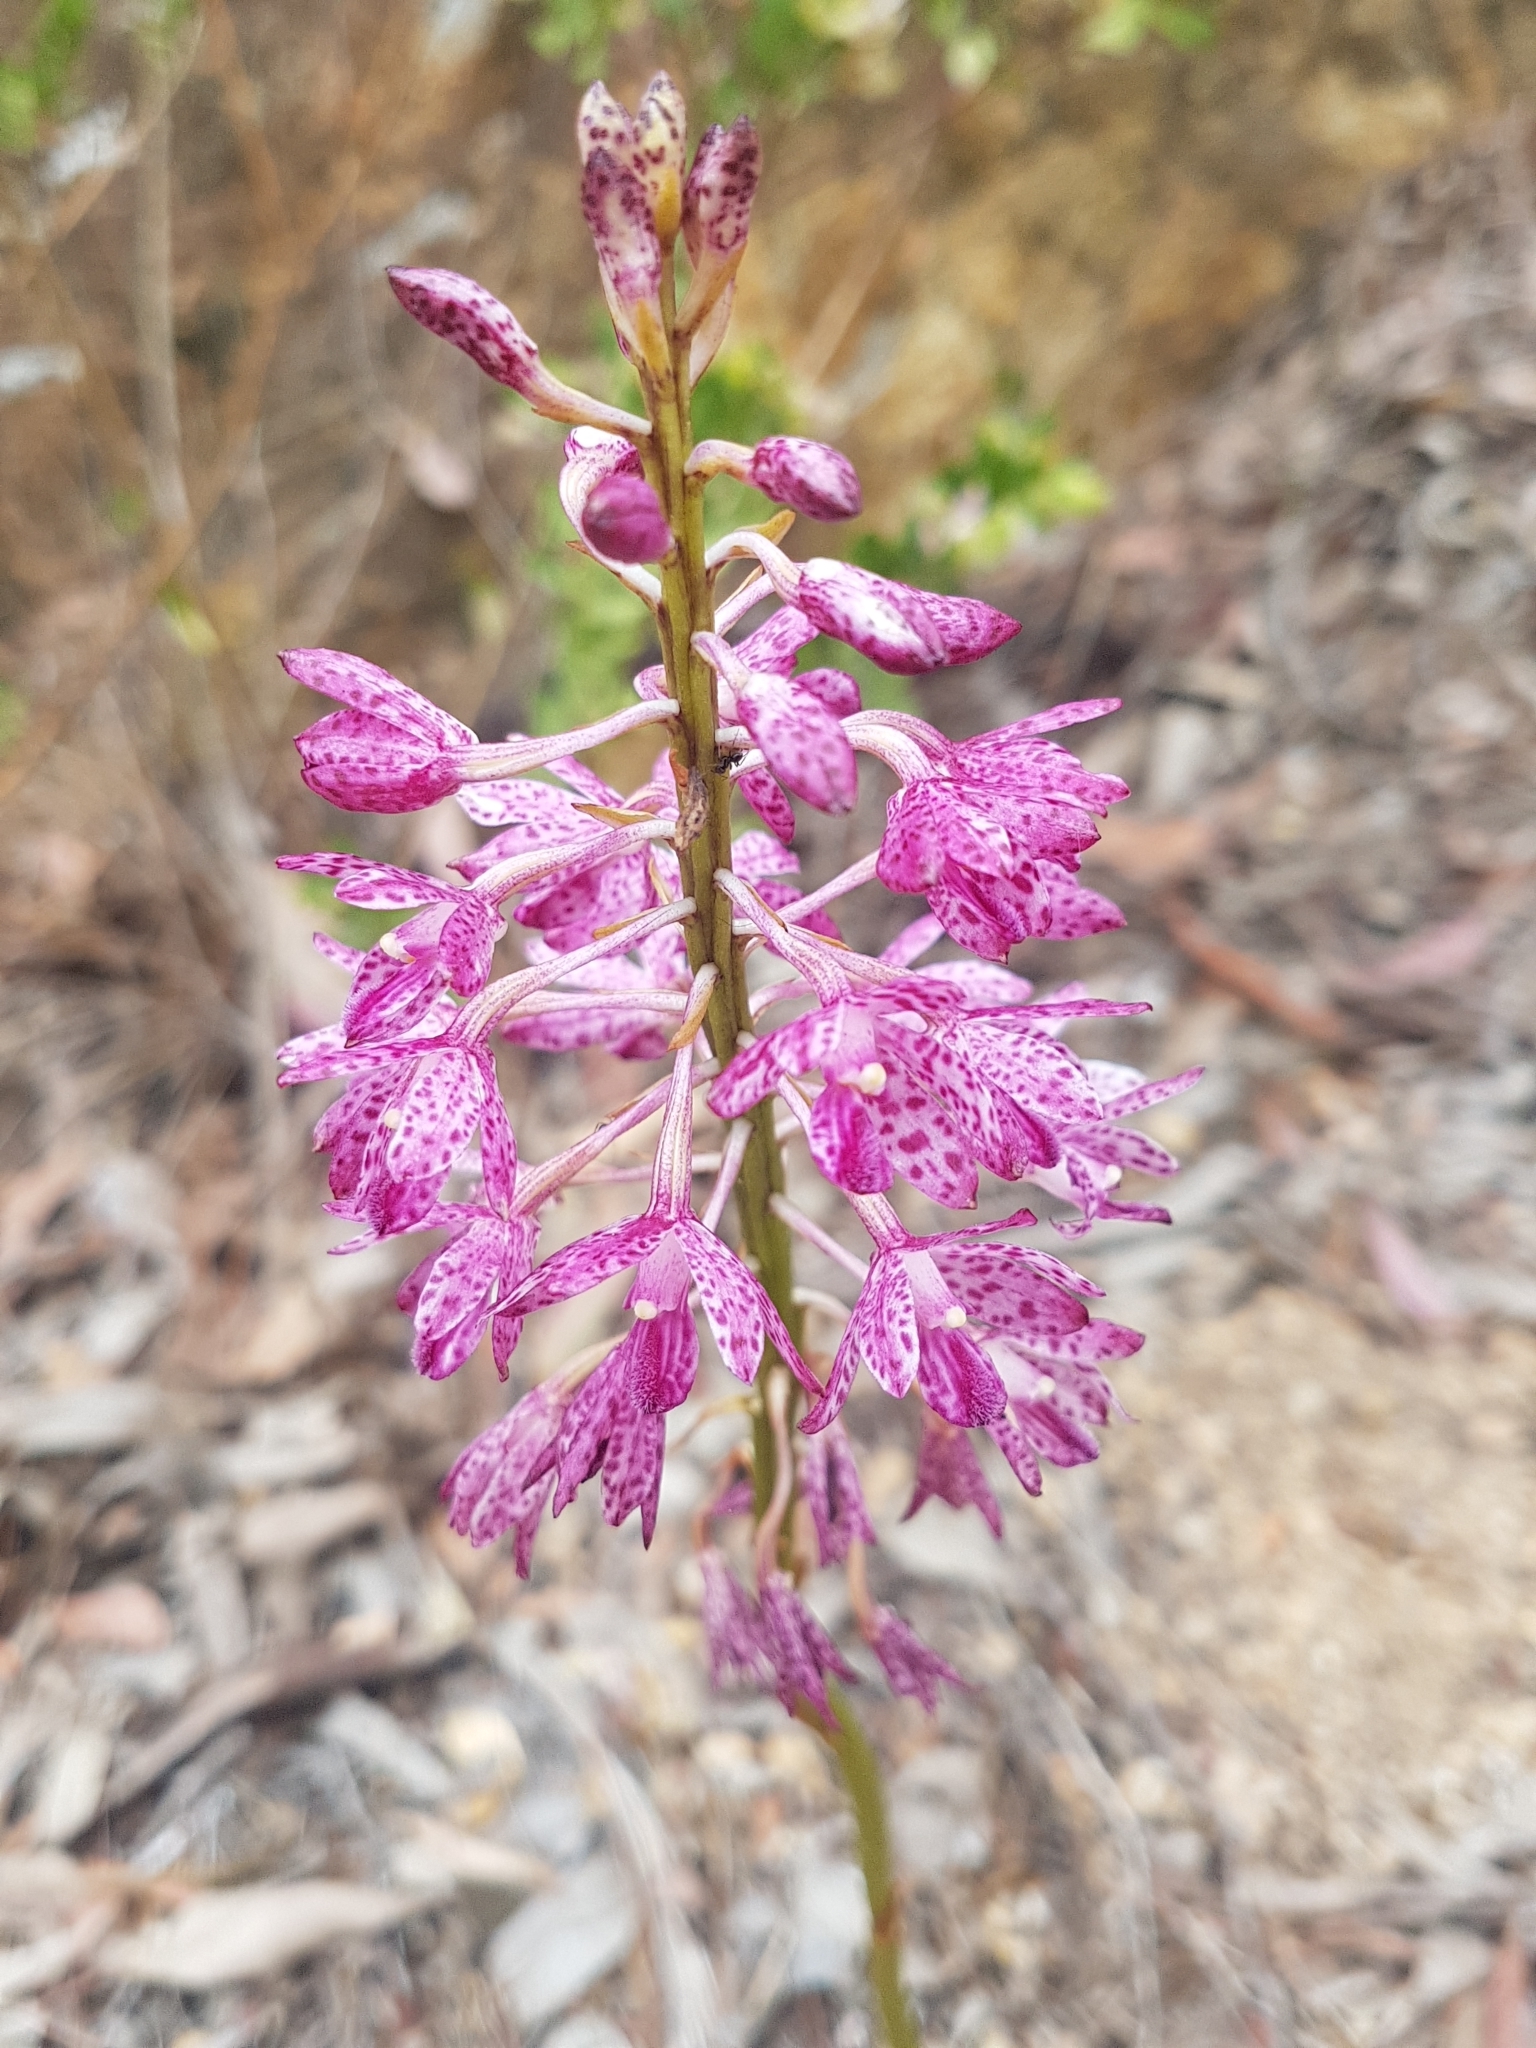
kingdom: Plantae
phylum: Tracheophyta
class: Liliopsida
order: Asparagales
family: Orchidaceae
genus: Dipodium
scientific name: Dipodium roseum
